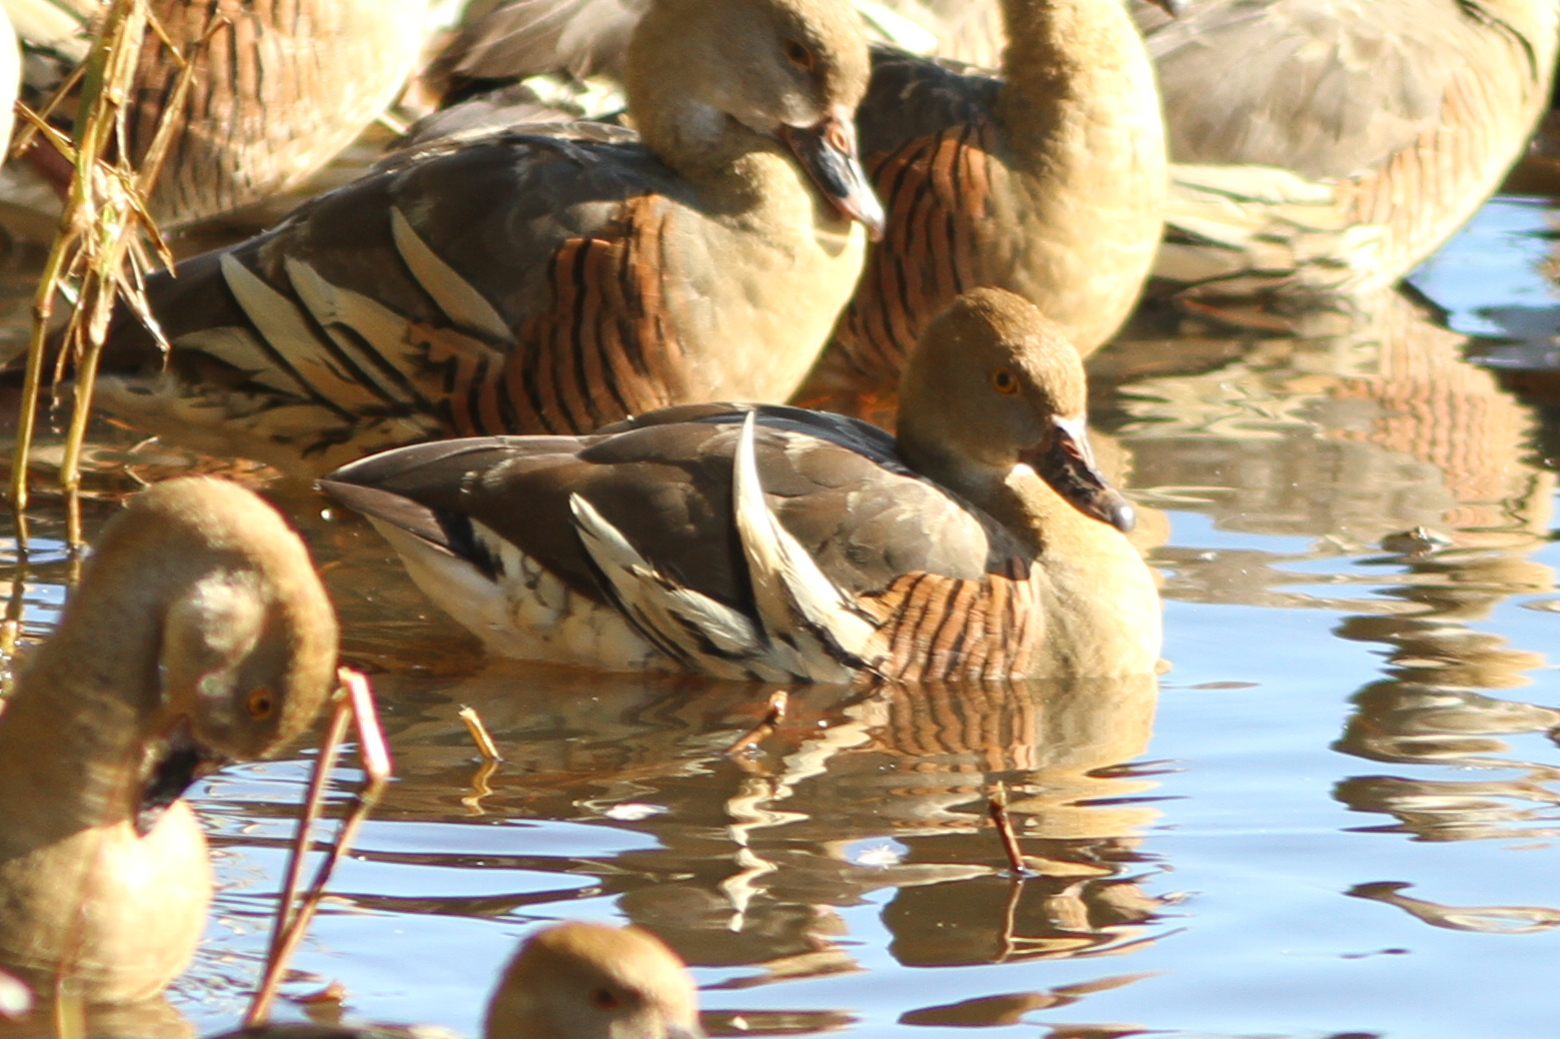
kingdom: Animalia
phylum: Chordata
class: Aves
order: Anseriformes
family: Anatidae
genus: Dendrocygna
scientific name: Dendrocygna eytoni
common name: Plumed whistling-duck
